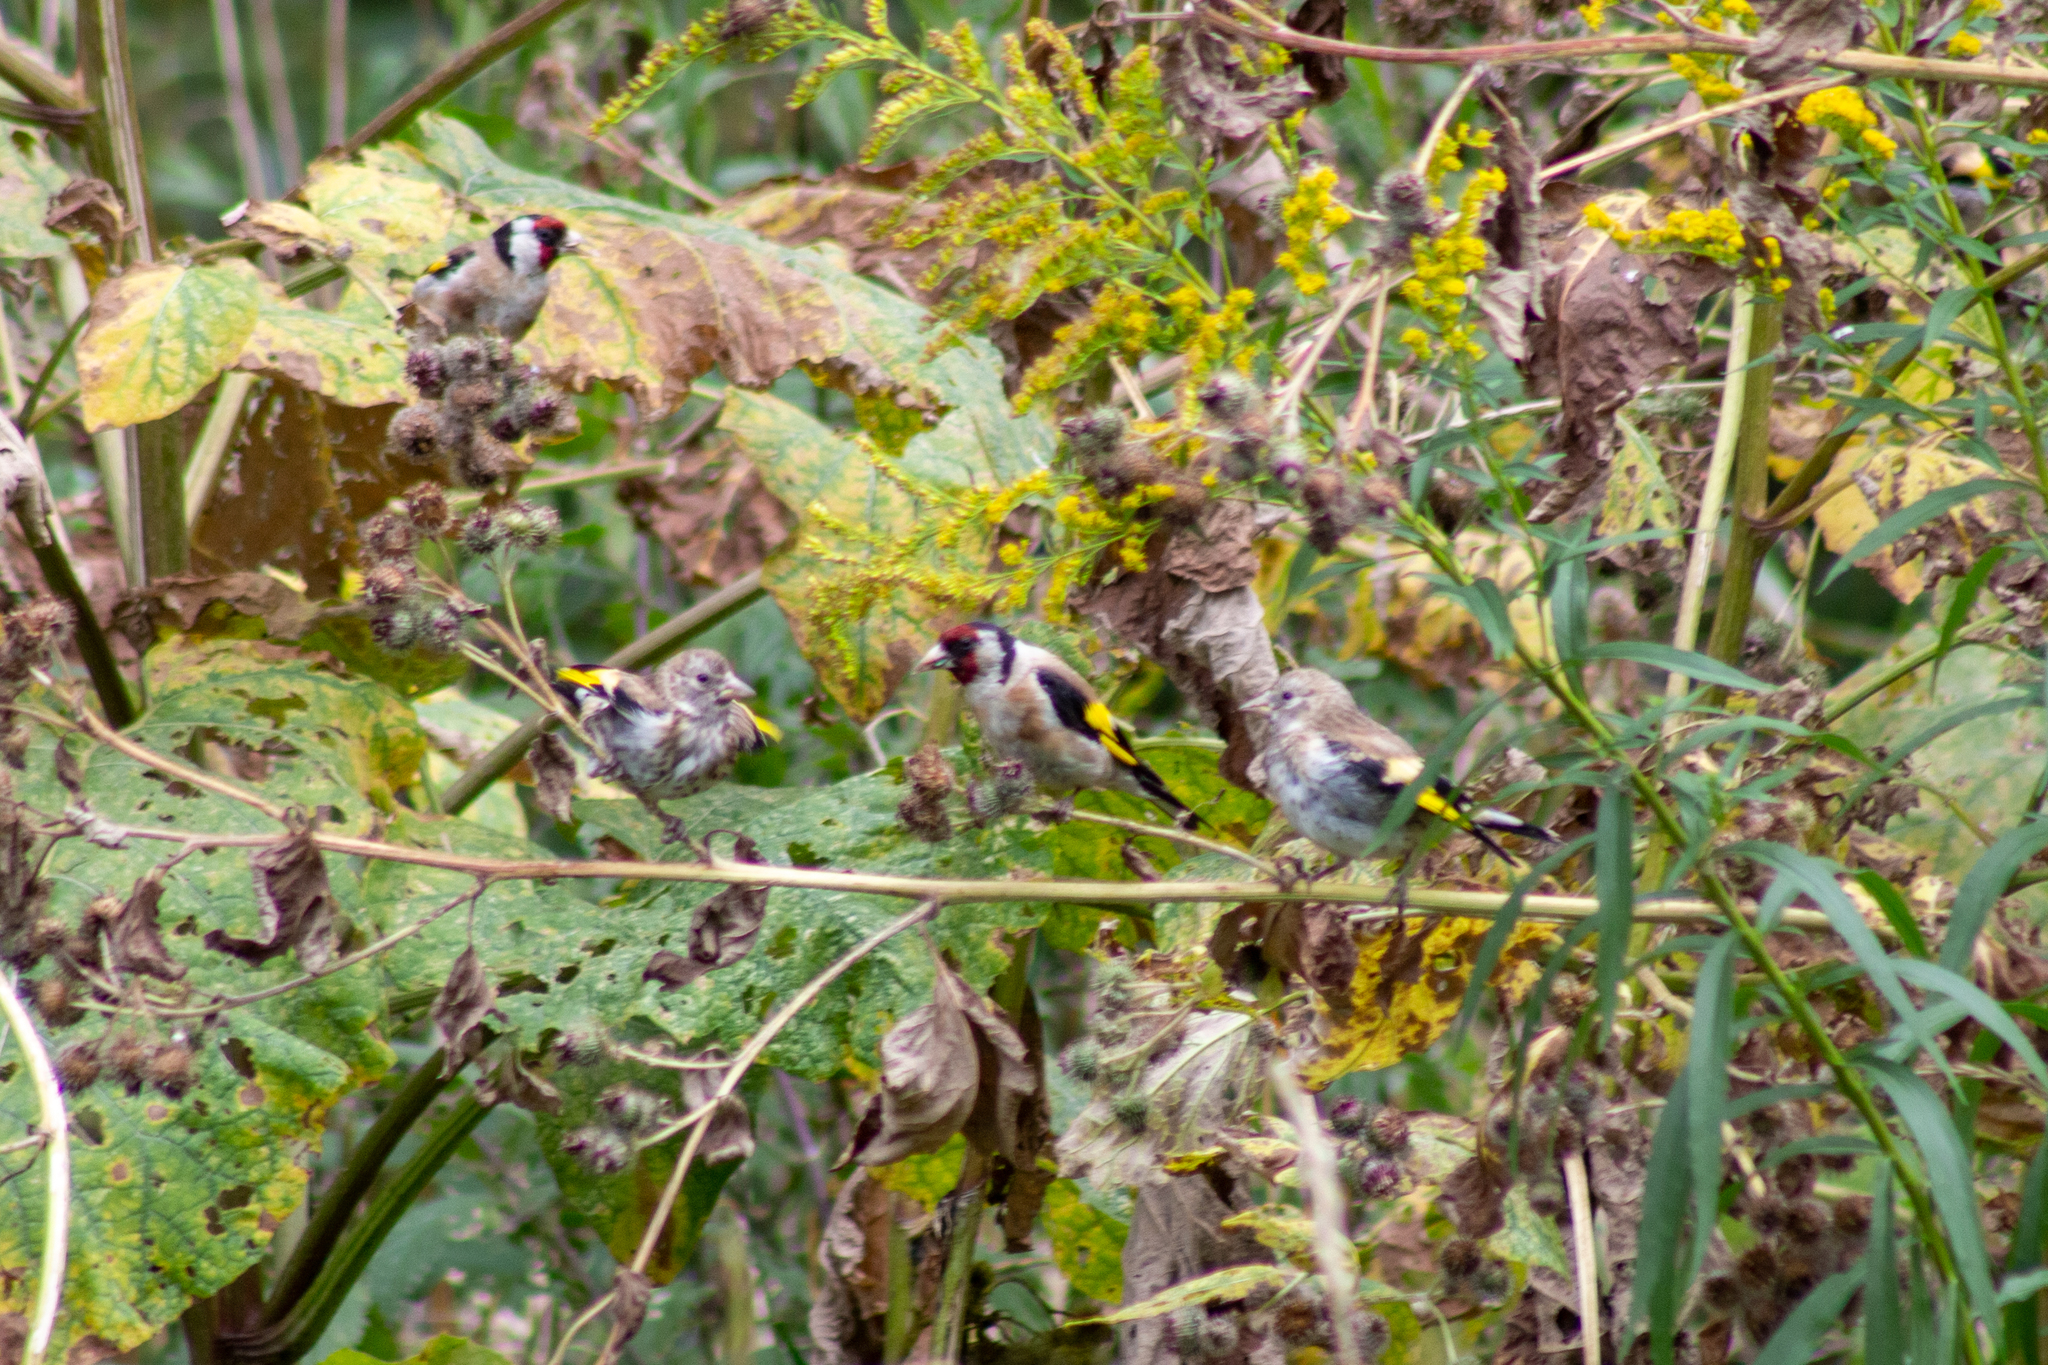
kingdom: Animalia
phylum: Chordata
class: Aves
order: Passeriformes
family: Fringillidae
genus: Carduelis
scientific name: Carduelis carduelis
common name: European goldfinch
